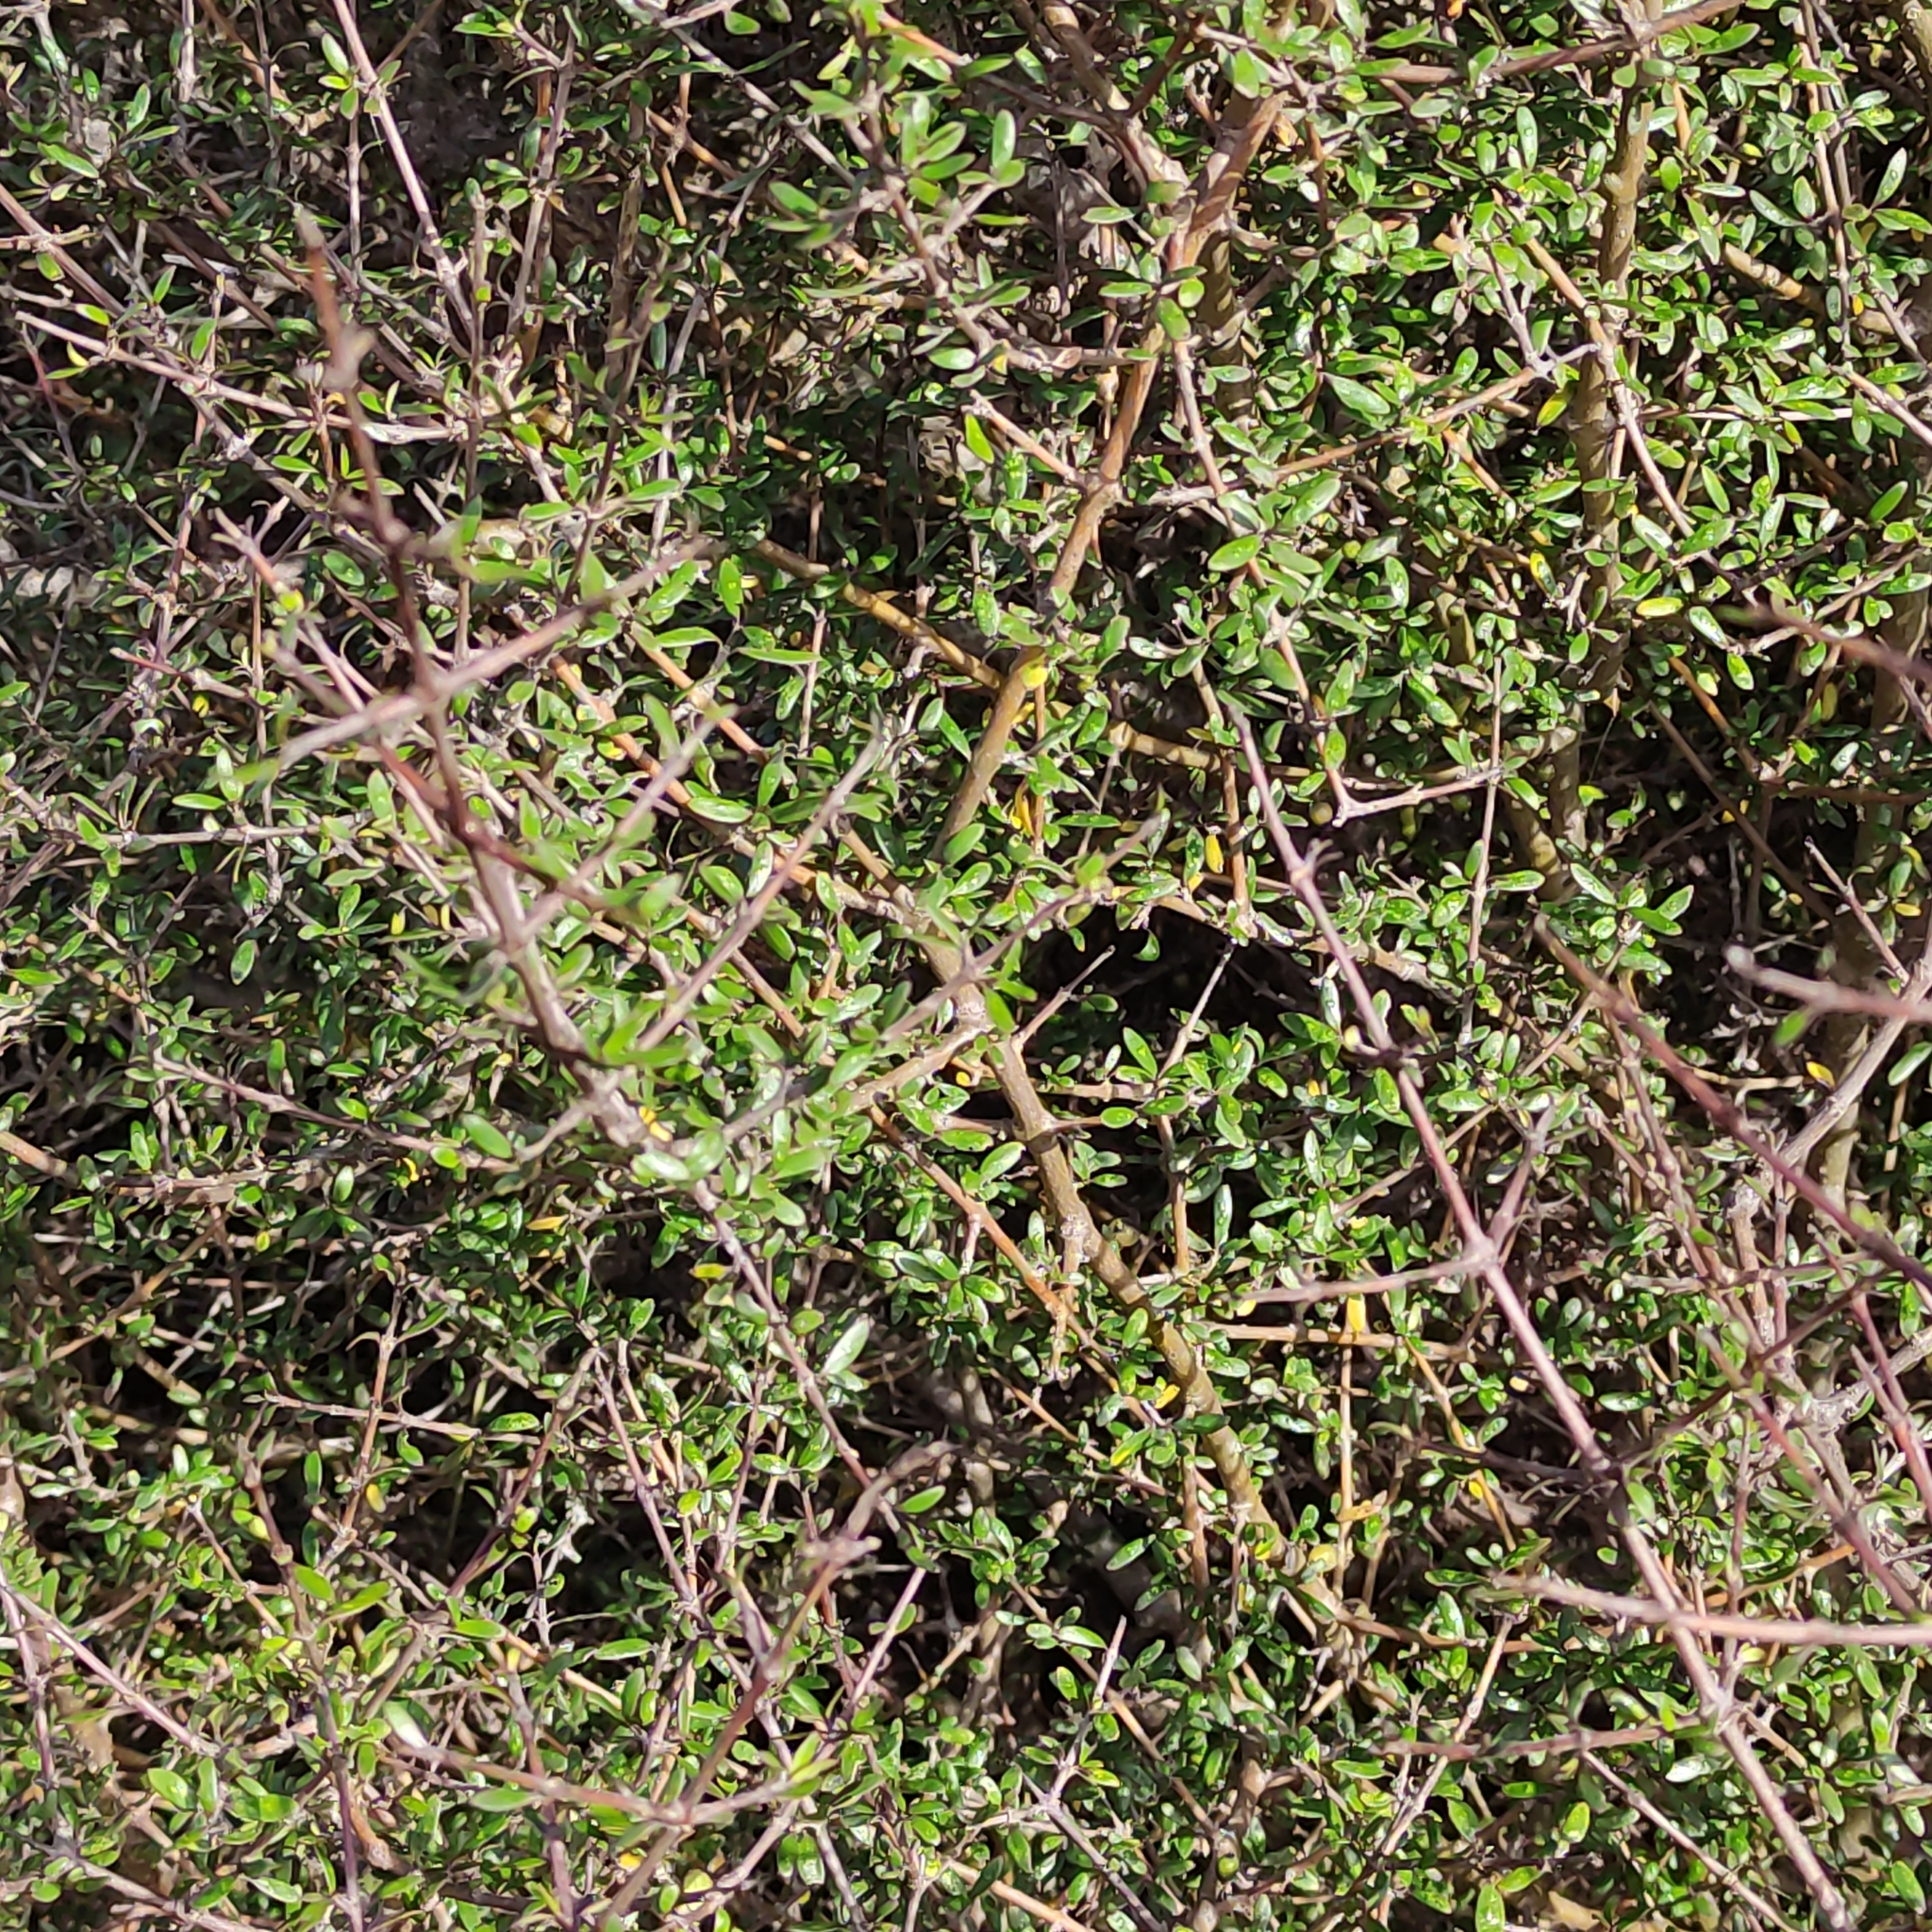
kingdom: Plantae
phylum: Tracheophyta
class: Magnoliopsida
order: Gentianales
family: Rubiaceae
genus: Coprosma
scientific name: Coprosma propinqua
